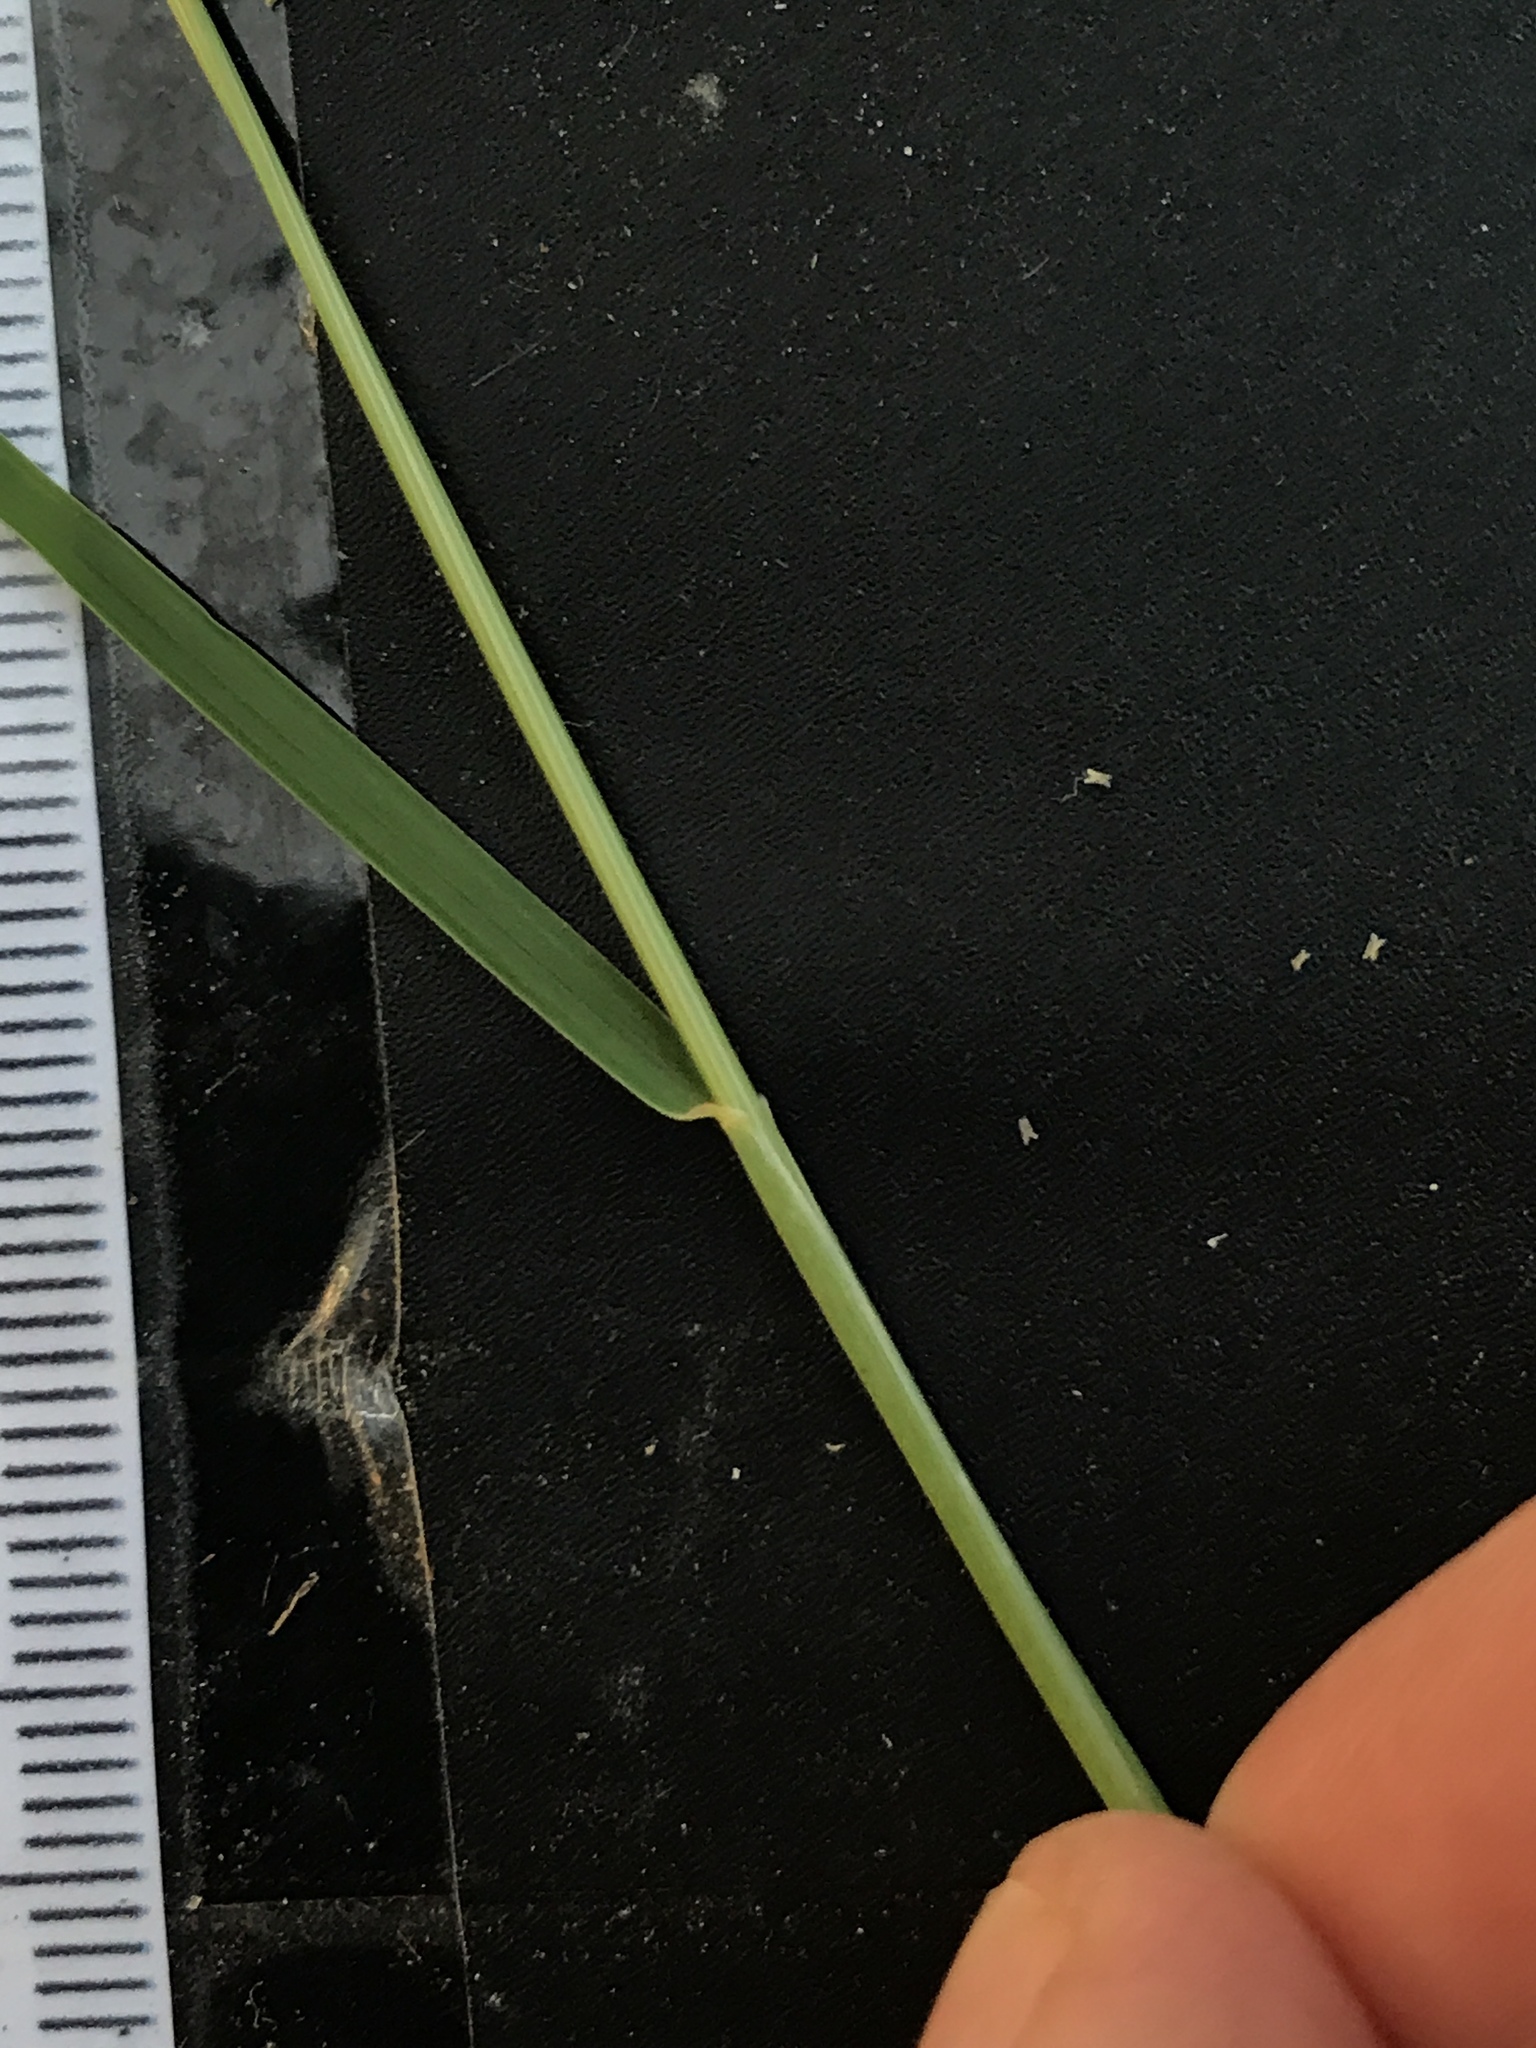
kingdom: Plantae
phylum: Tracheophyta
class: Liliopsida
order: Poales
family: Poaceae
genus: Disakisperma
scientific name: Disakisperma dubium
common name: Green sprangletop
